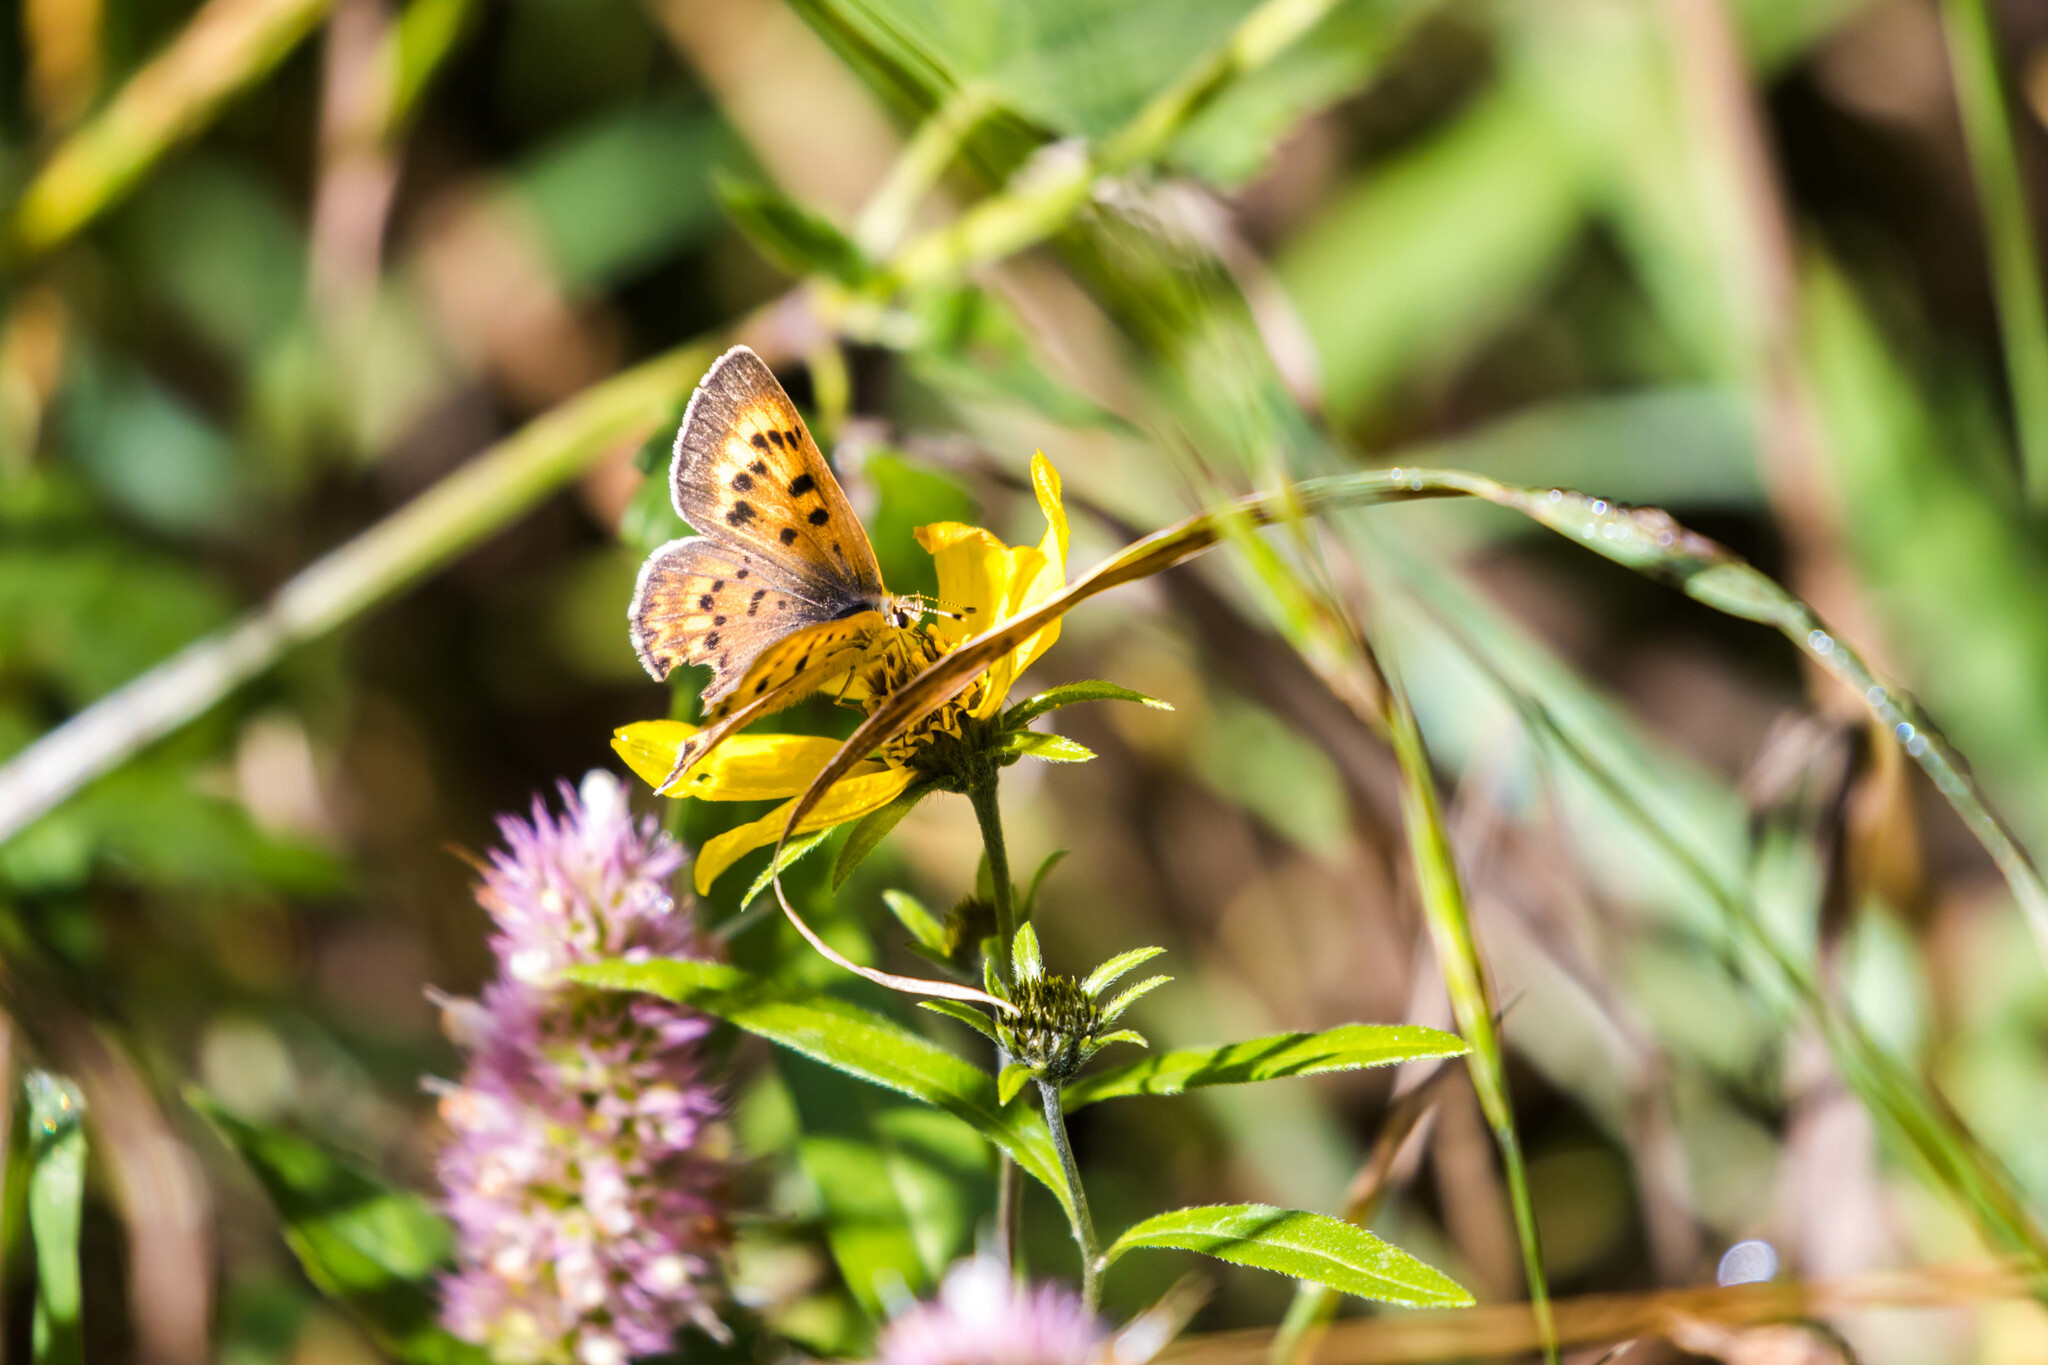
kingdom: Animalia
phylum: Arthropoda
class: Insecta
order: Lepidoptera
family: Lycaenidae
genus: Tharsalea
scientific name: Tharsalea helloides
